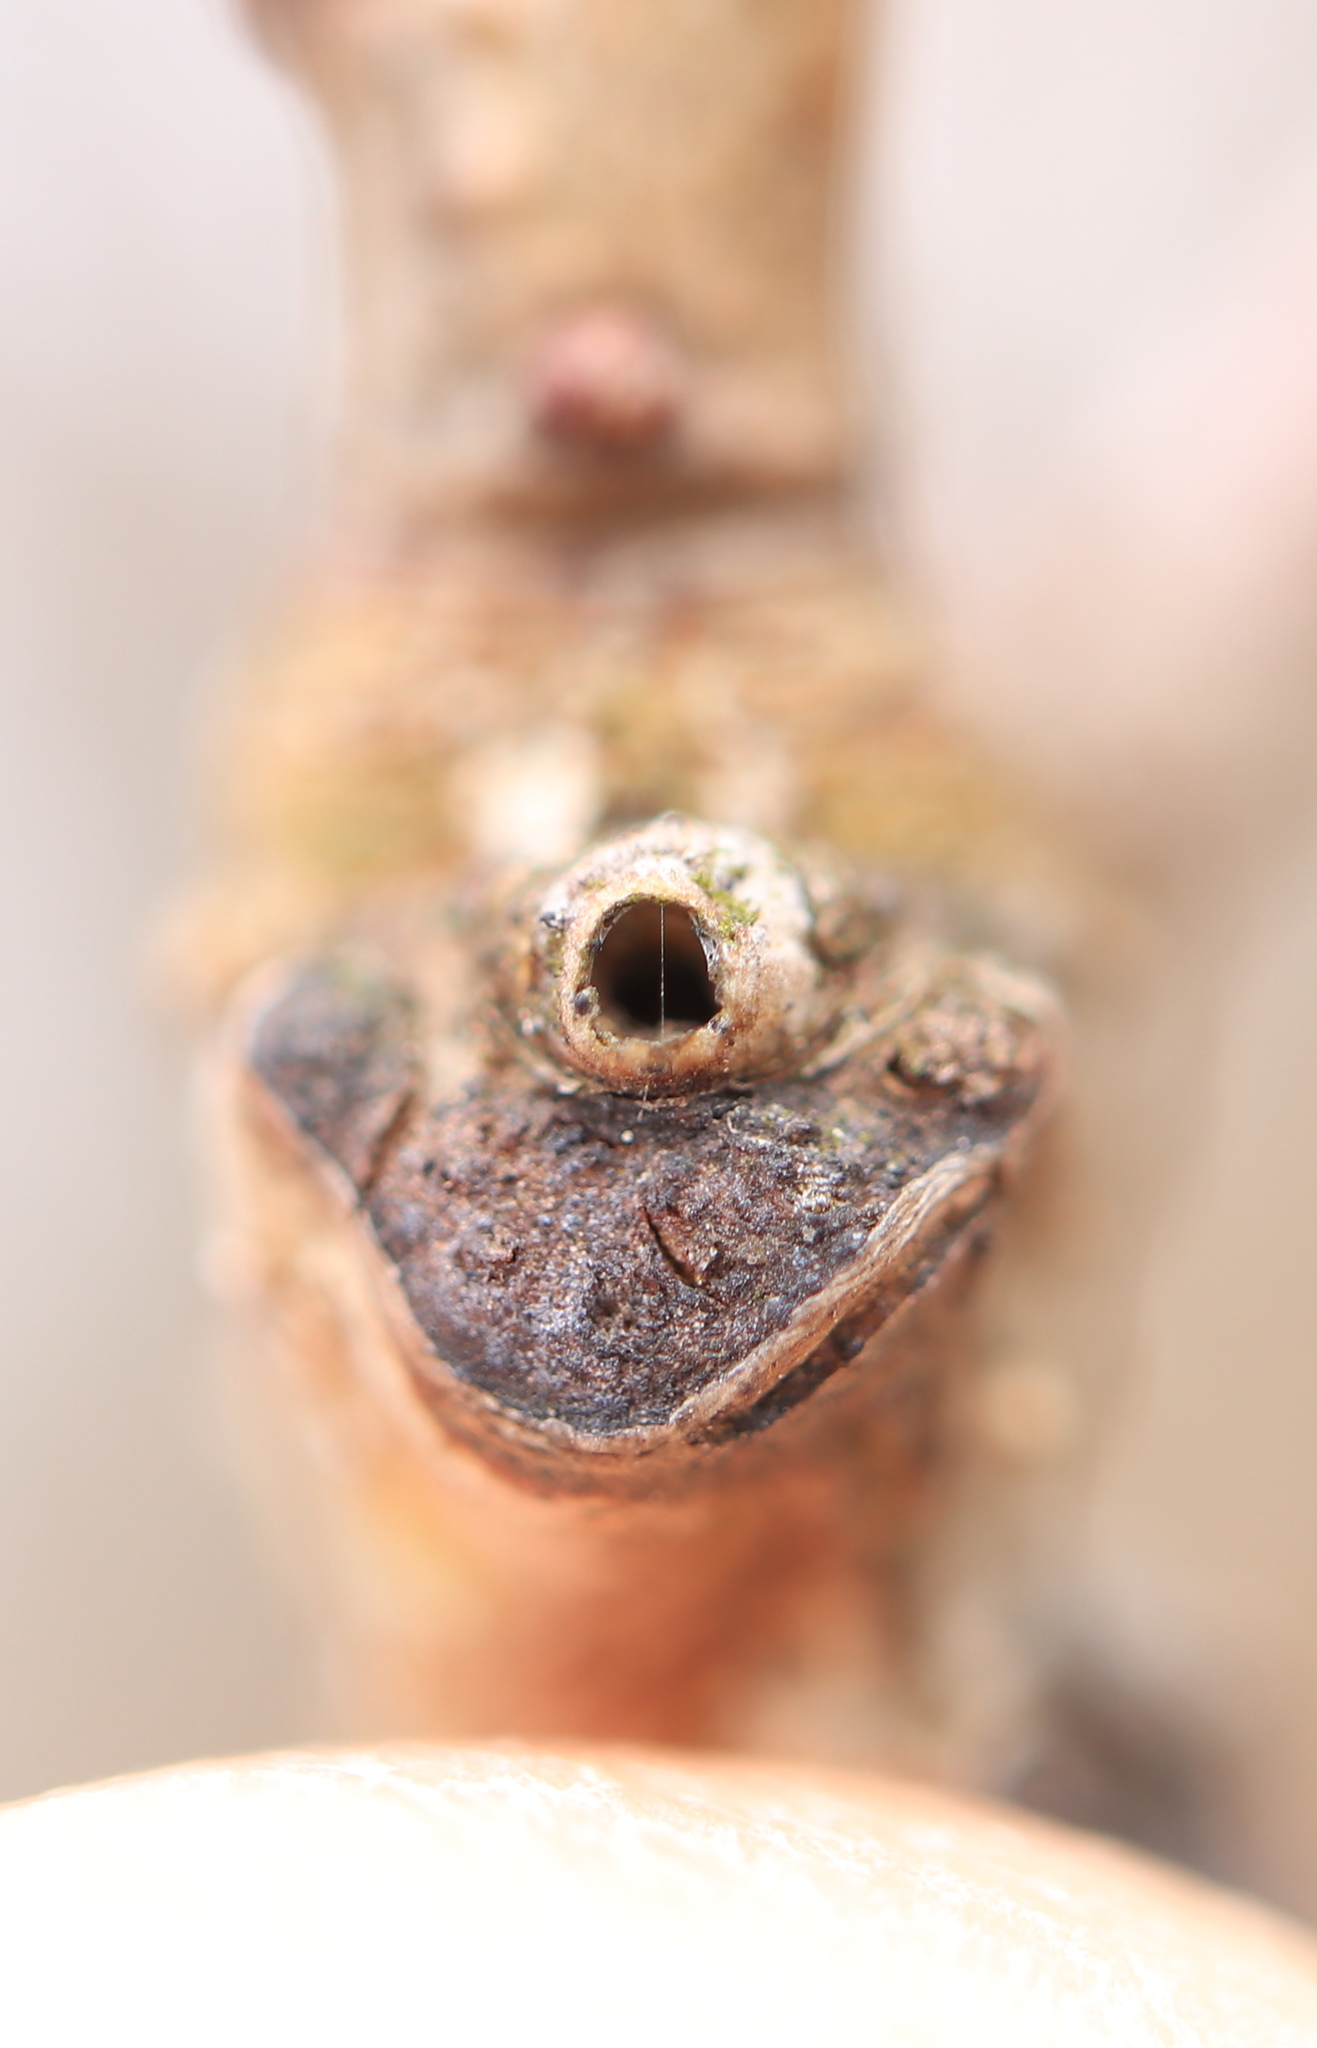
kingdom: Animalia
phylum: Arthropoda
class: Insecta
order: Hymenoptera
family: Cynipidae
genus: Neuroterus
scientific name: Neuroterus
